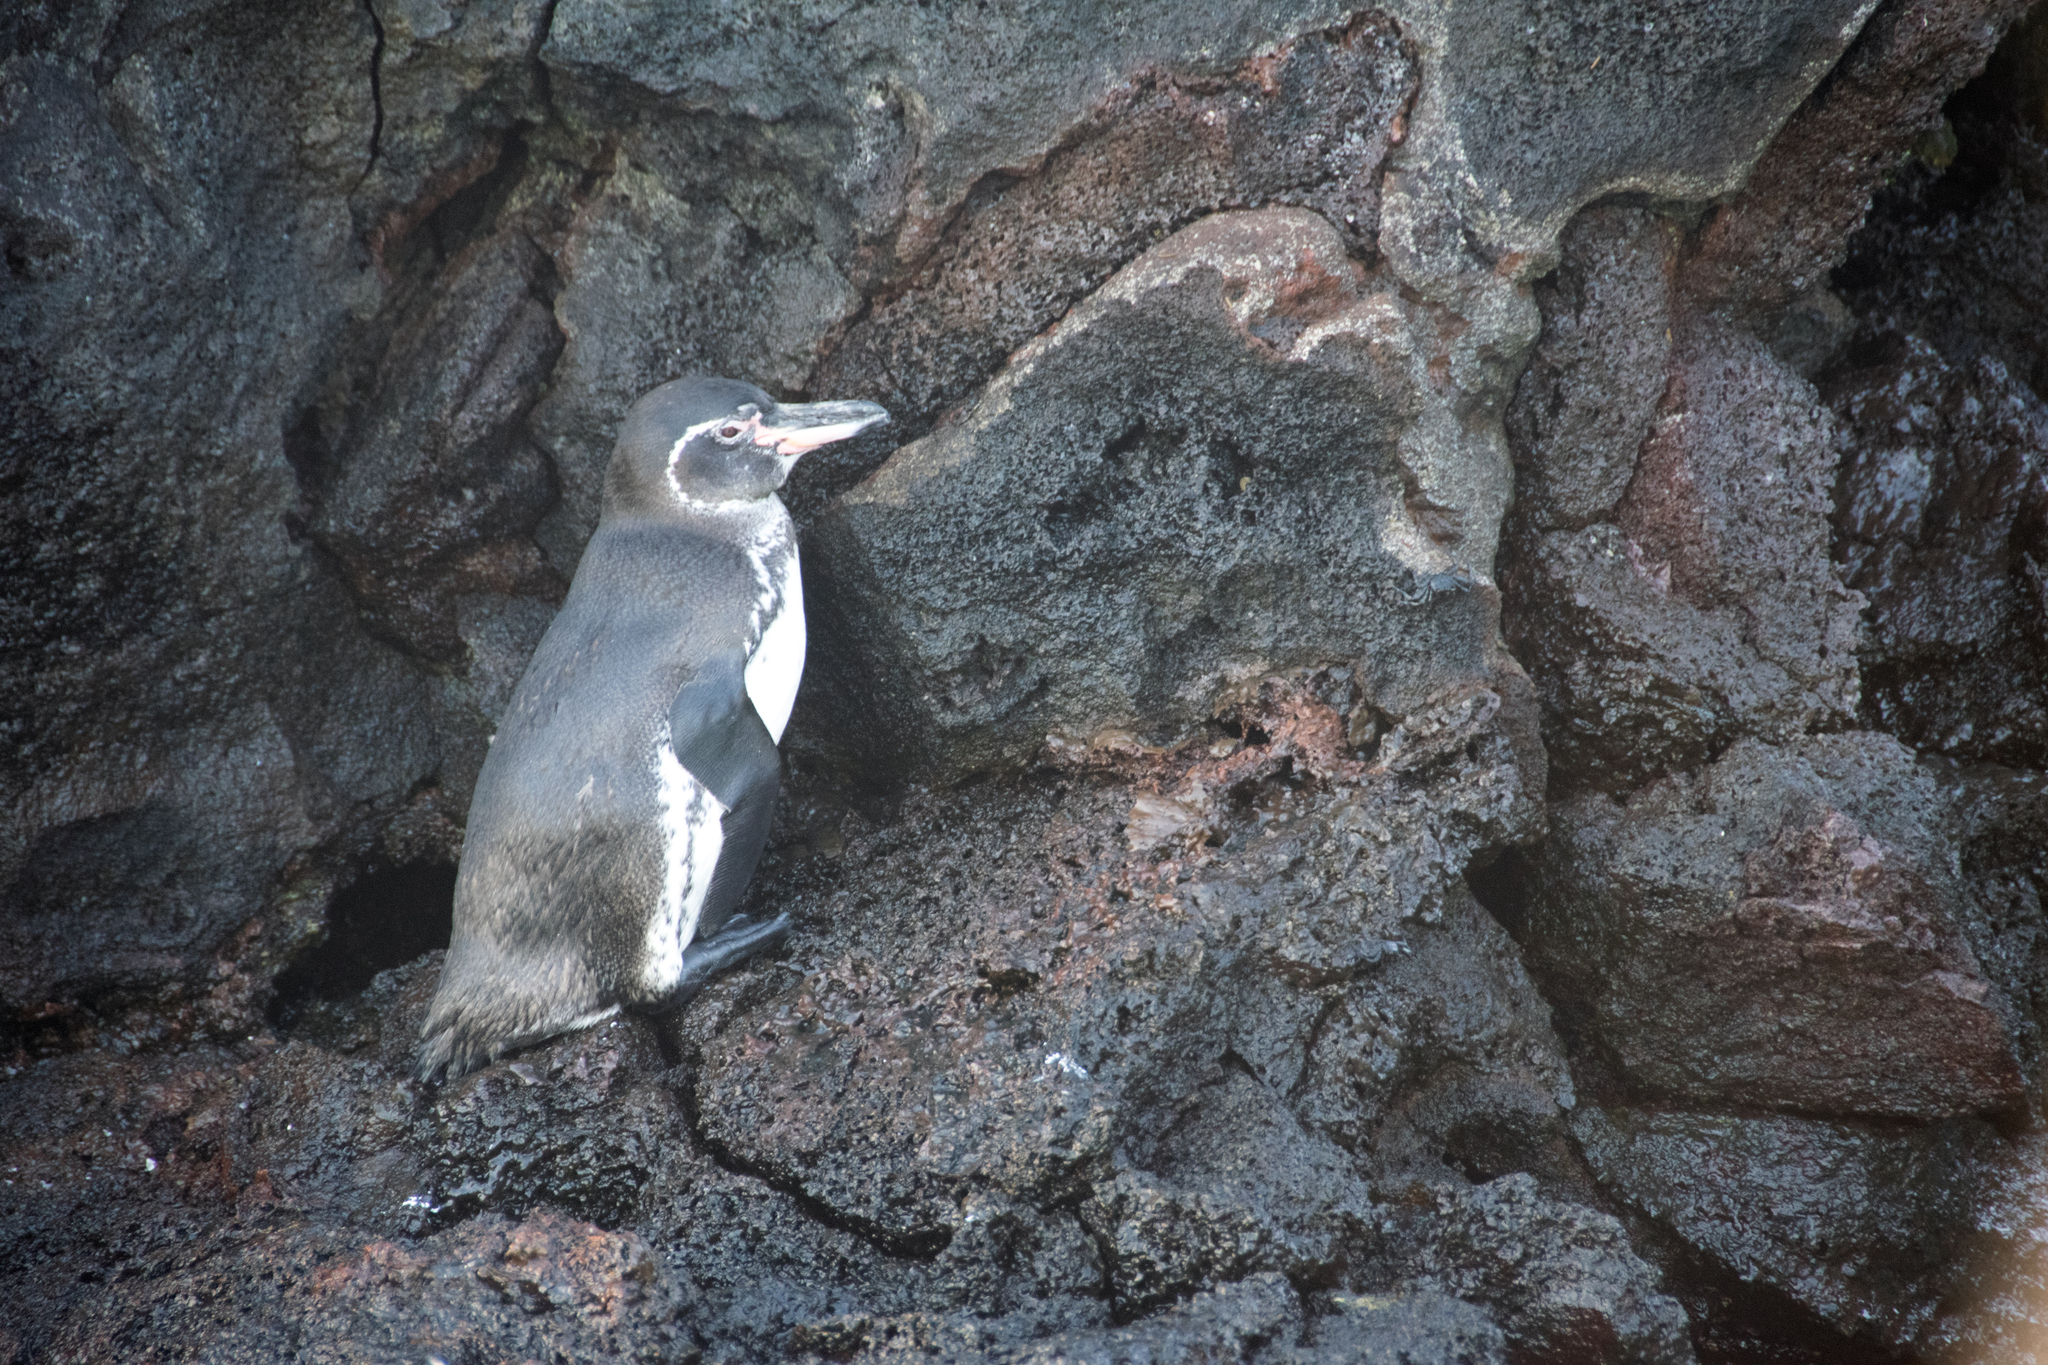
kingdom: Animalia
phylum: Chordata
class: Aves
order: Sphenisciformes
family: Spheniscidae
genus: Spheniscus
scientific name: Spheniscus mendiculus
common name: Galapagos penguin
